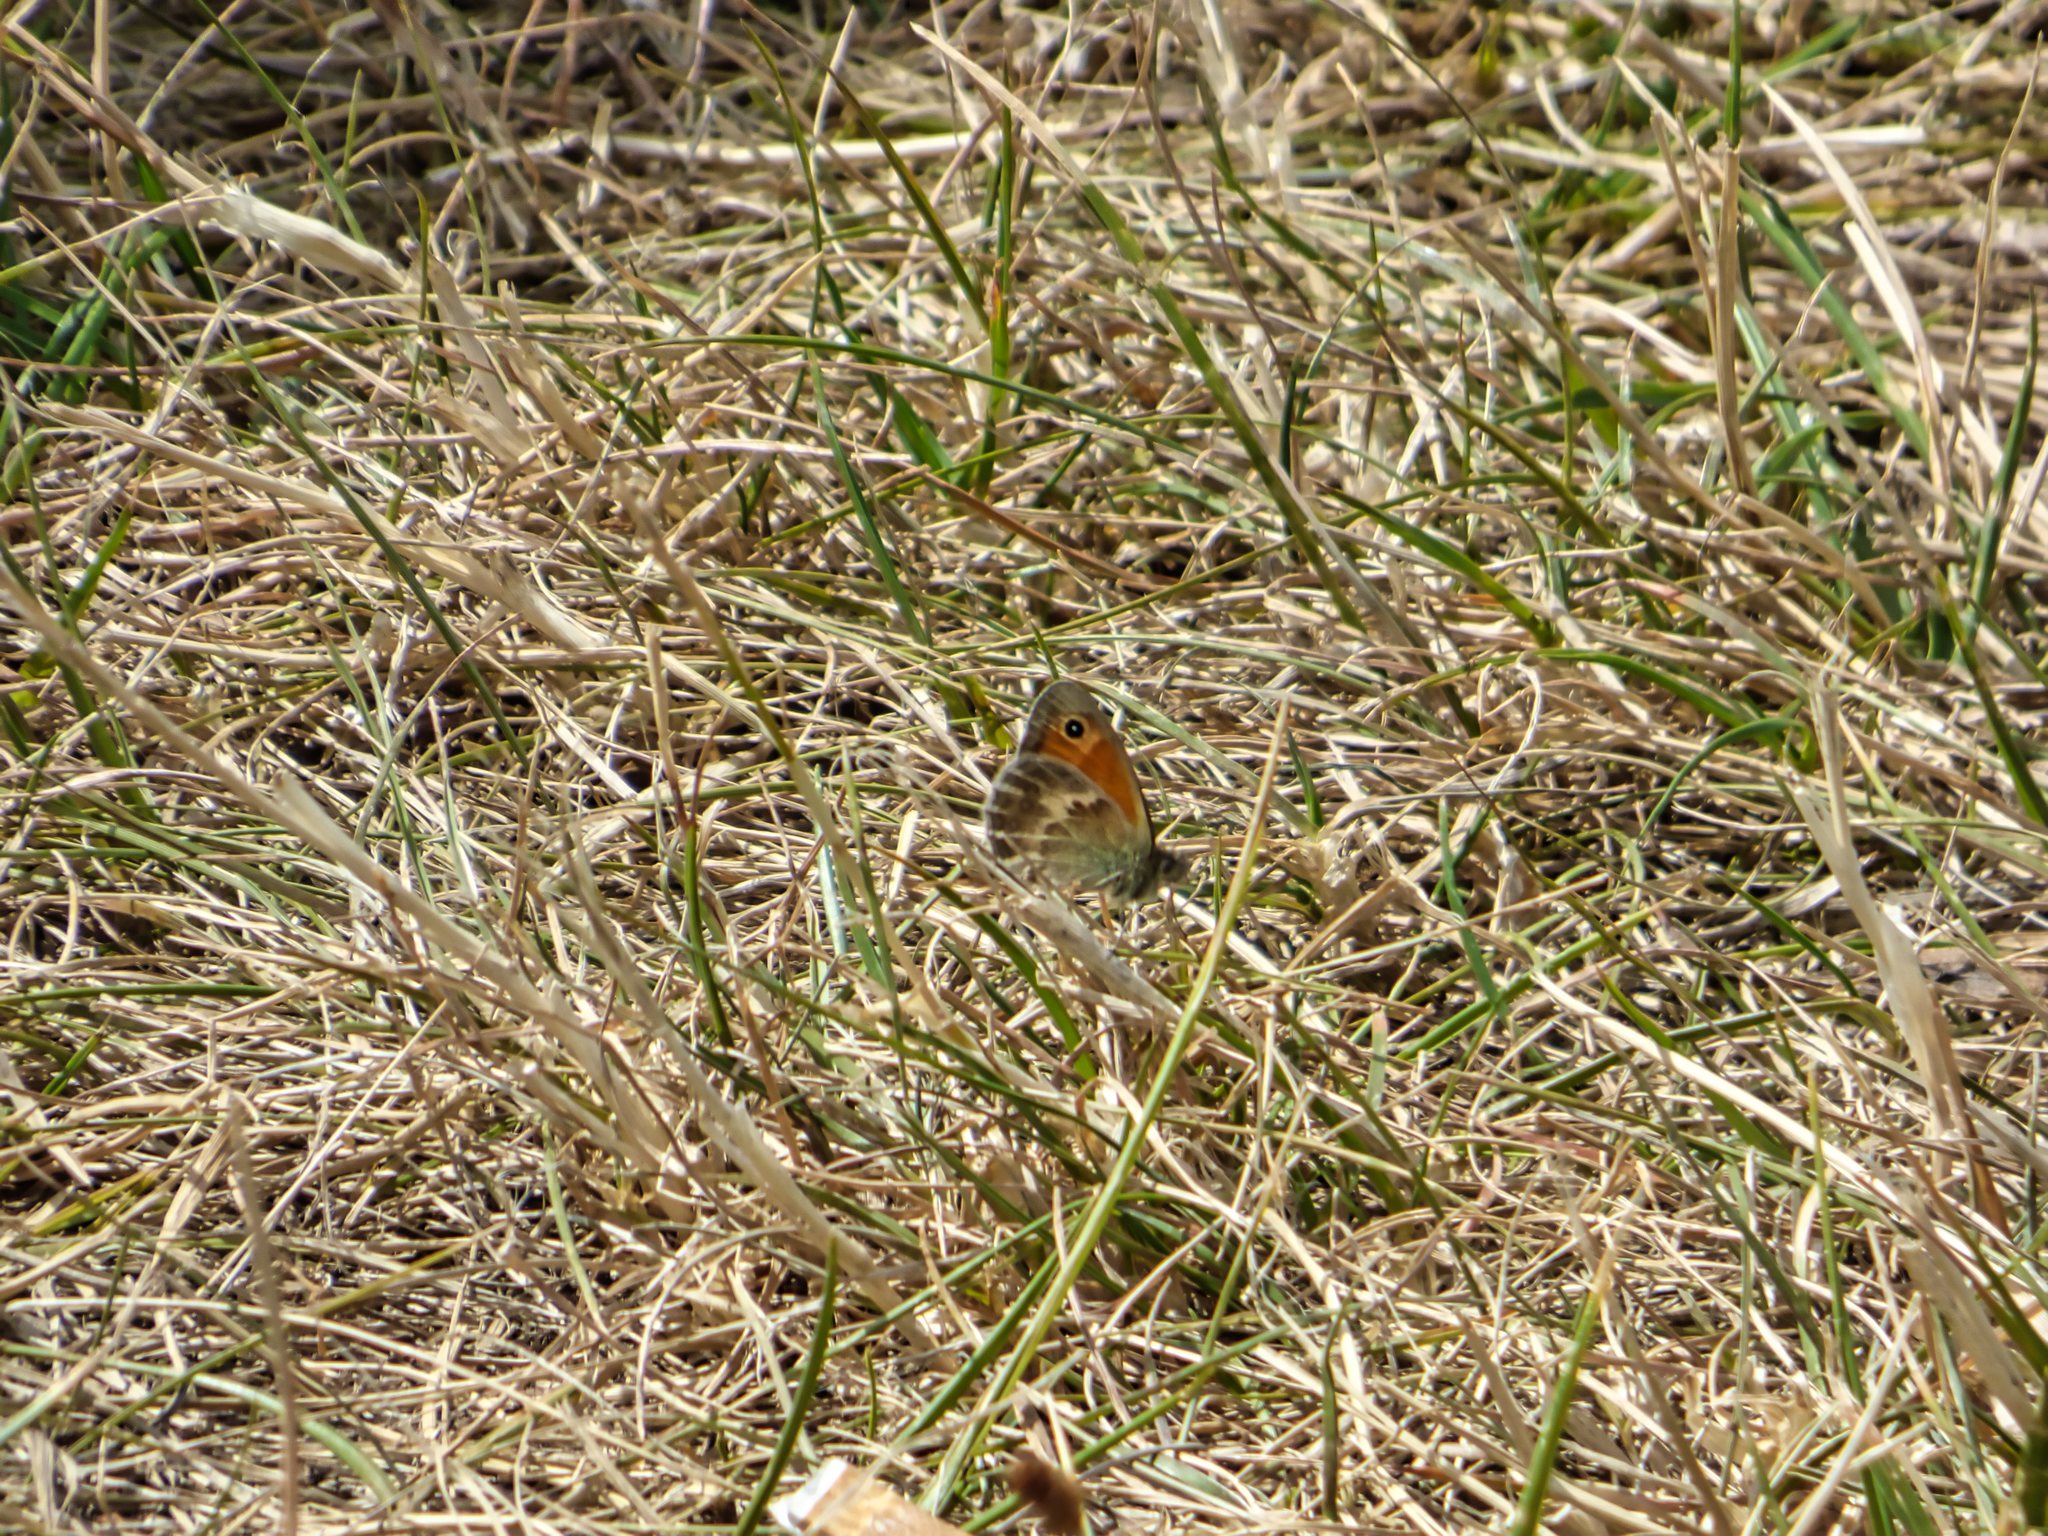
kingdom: Animalia
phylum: Arthropoda
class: Insecta
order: Lepidoptera
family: Nymphalidae
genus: Coenonympha
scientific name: Coenonympha pamphilus
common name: Small heath
